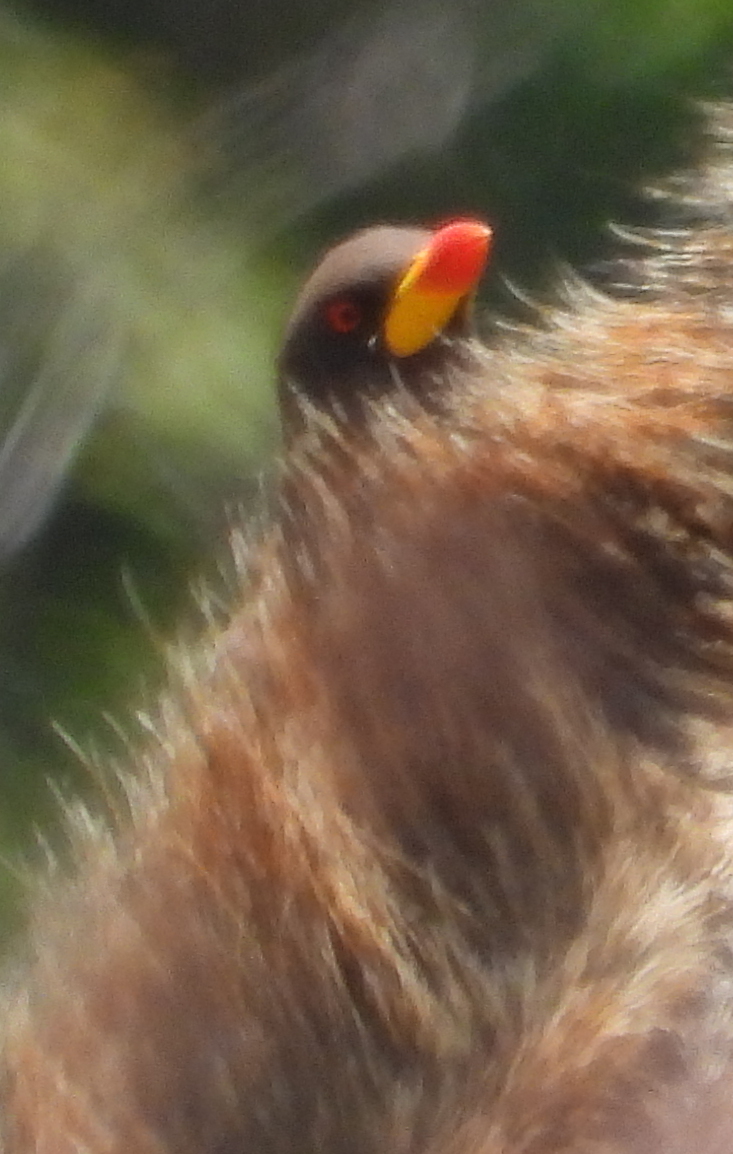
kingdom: Animalia
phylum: Chordata
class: Aves
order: Passeriformes
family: Buphagidae
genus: Buphagus
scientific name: Buphagus africanus
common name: Yellow-billed oxpecker
